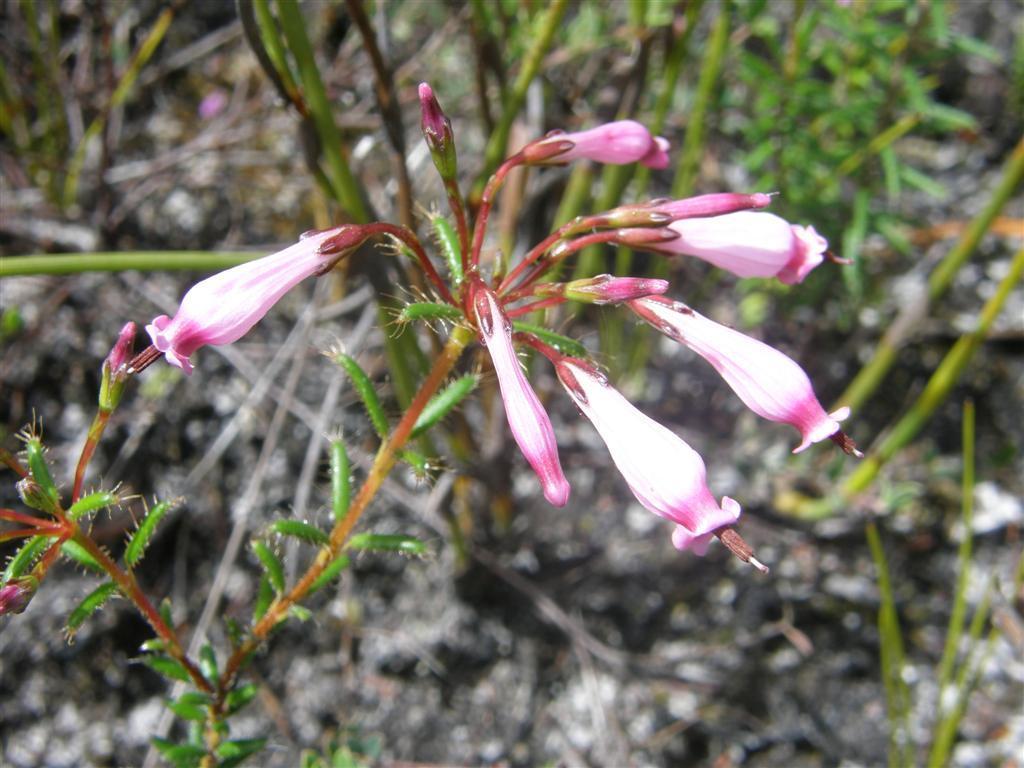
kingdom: Plantae
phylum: Tracheophyta
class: Magnoliopsida
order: Ericales
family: Ericaceae
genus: Erica
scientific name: Erica embothriifolia
